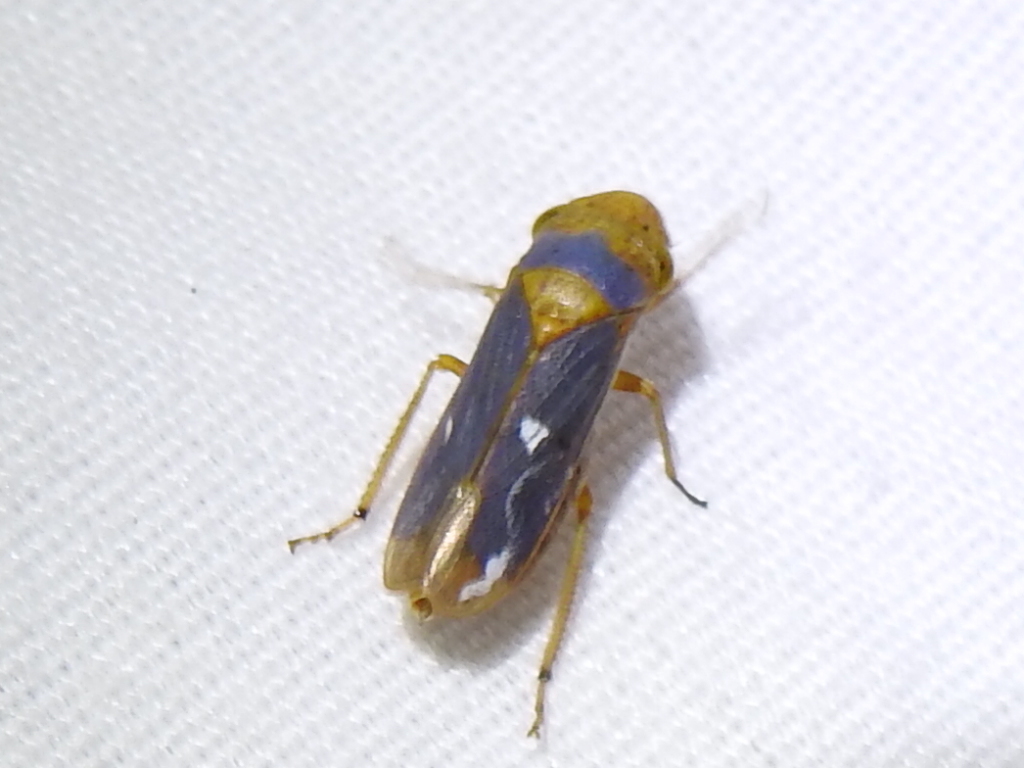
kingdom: Animalia
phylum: Arthropoda
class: Insecta
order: Hemiptera
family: Cicadellidae
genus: Oncometopia
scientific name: Oncometopia hamiltoni
